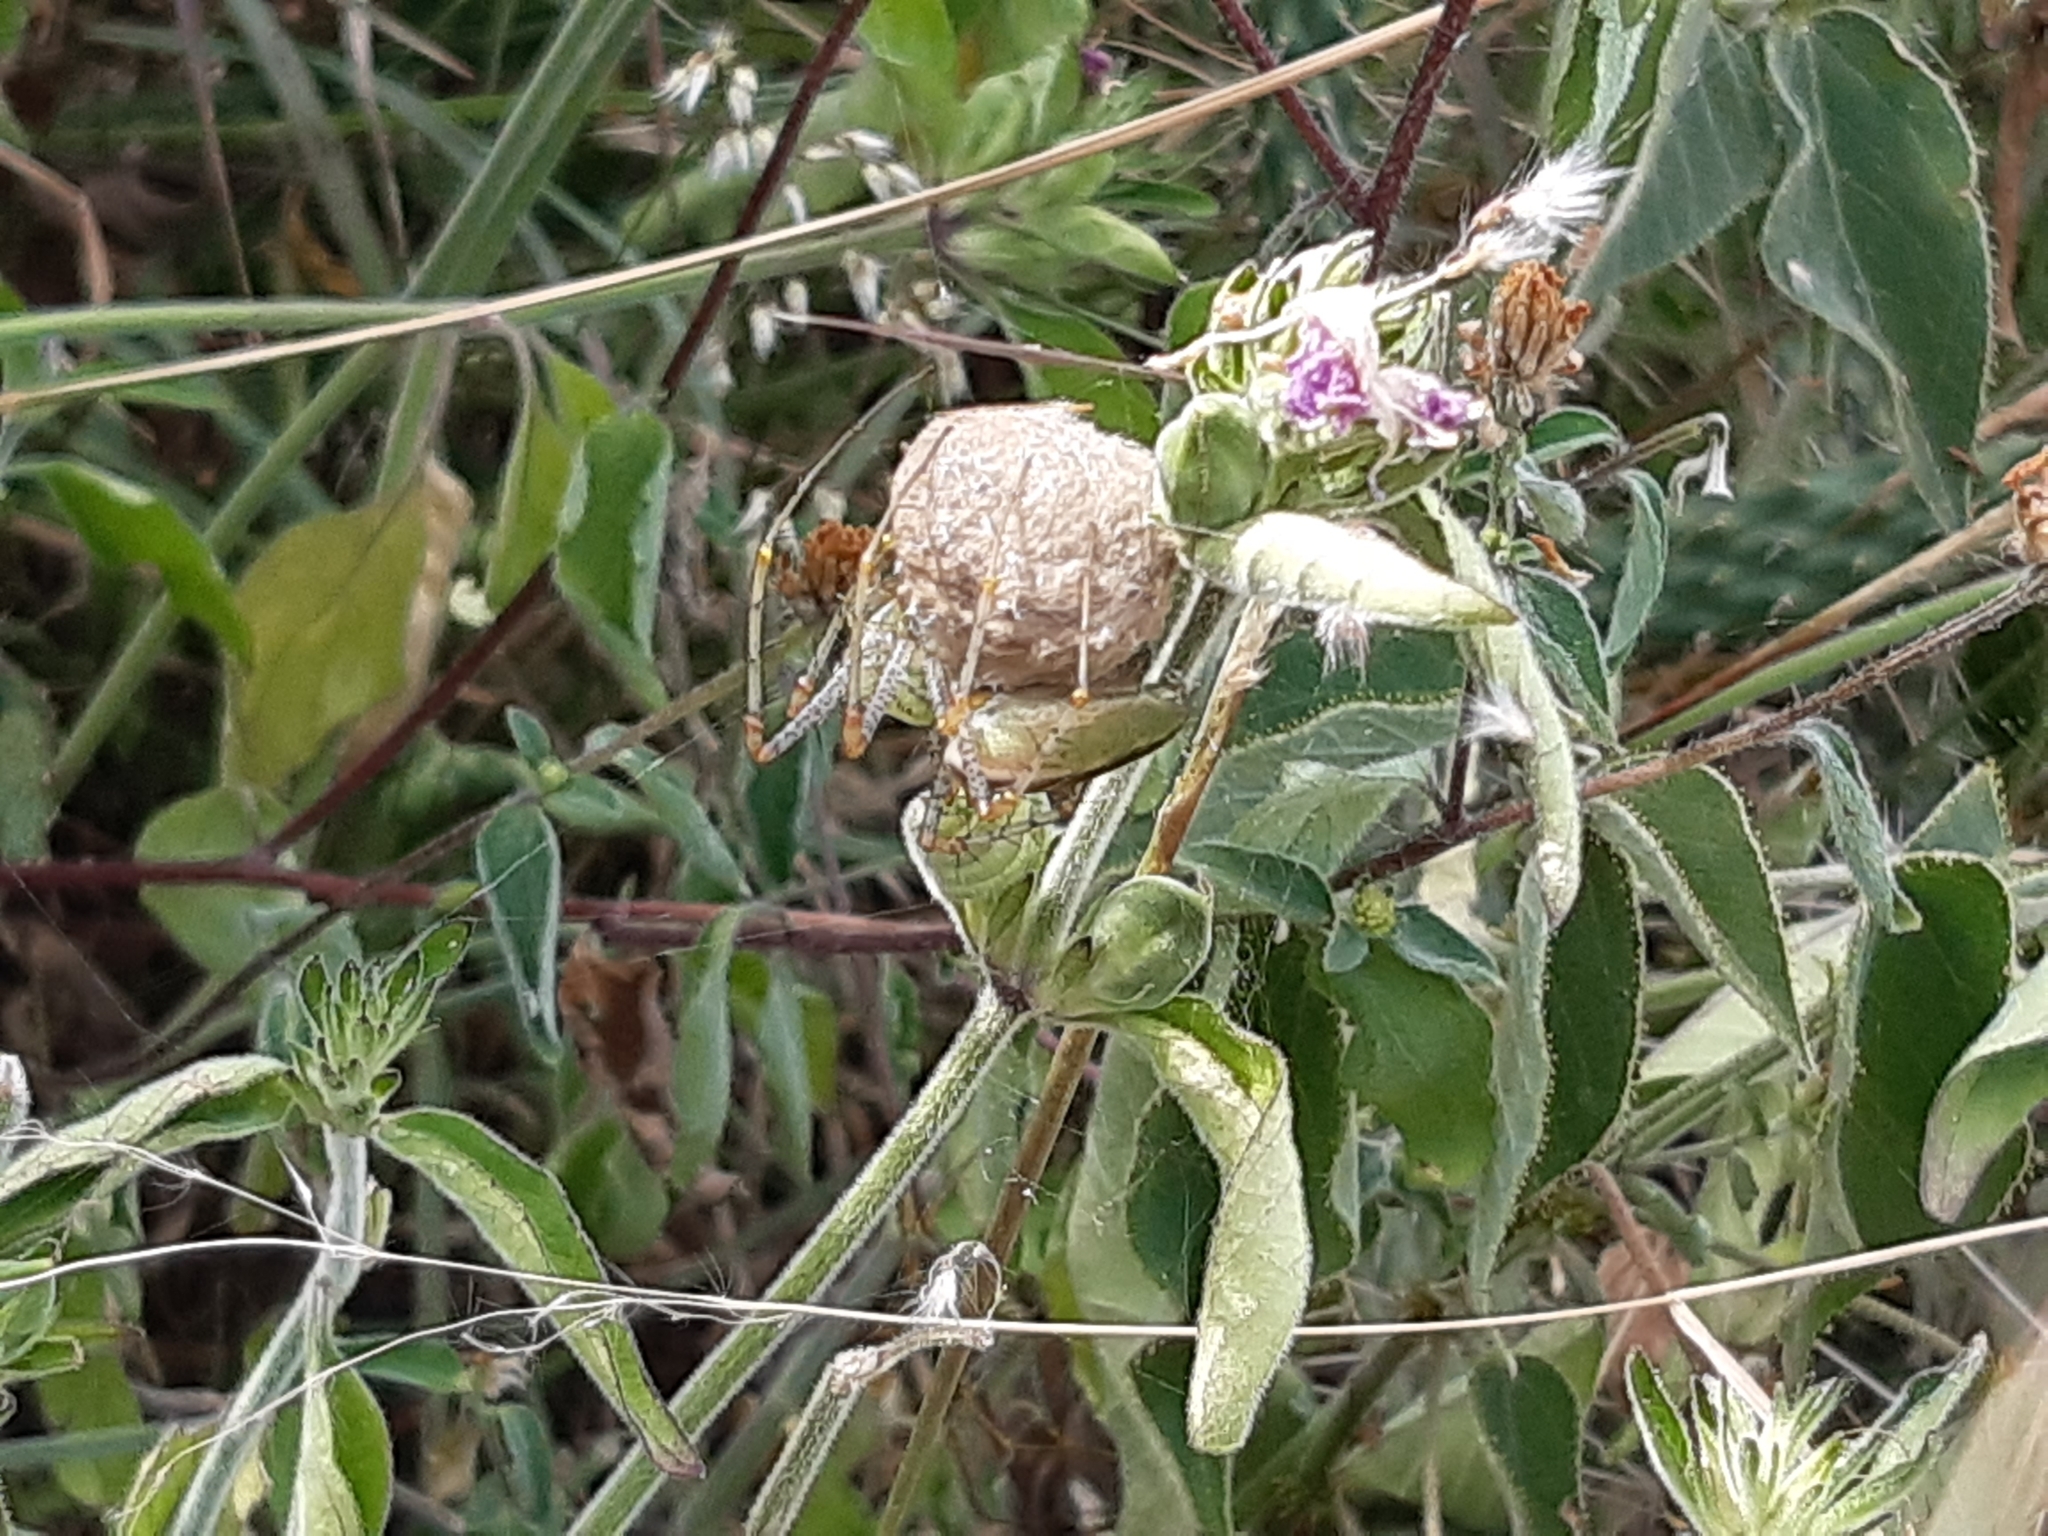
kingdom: Animalia
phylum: Arthropoda
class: Arachnida
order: Araneae
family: Oxyopidae
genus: Peucetia
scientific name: Peucetia viridans
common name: Lynx spiders
